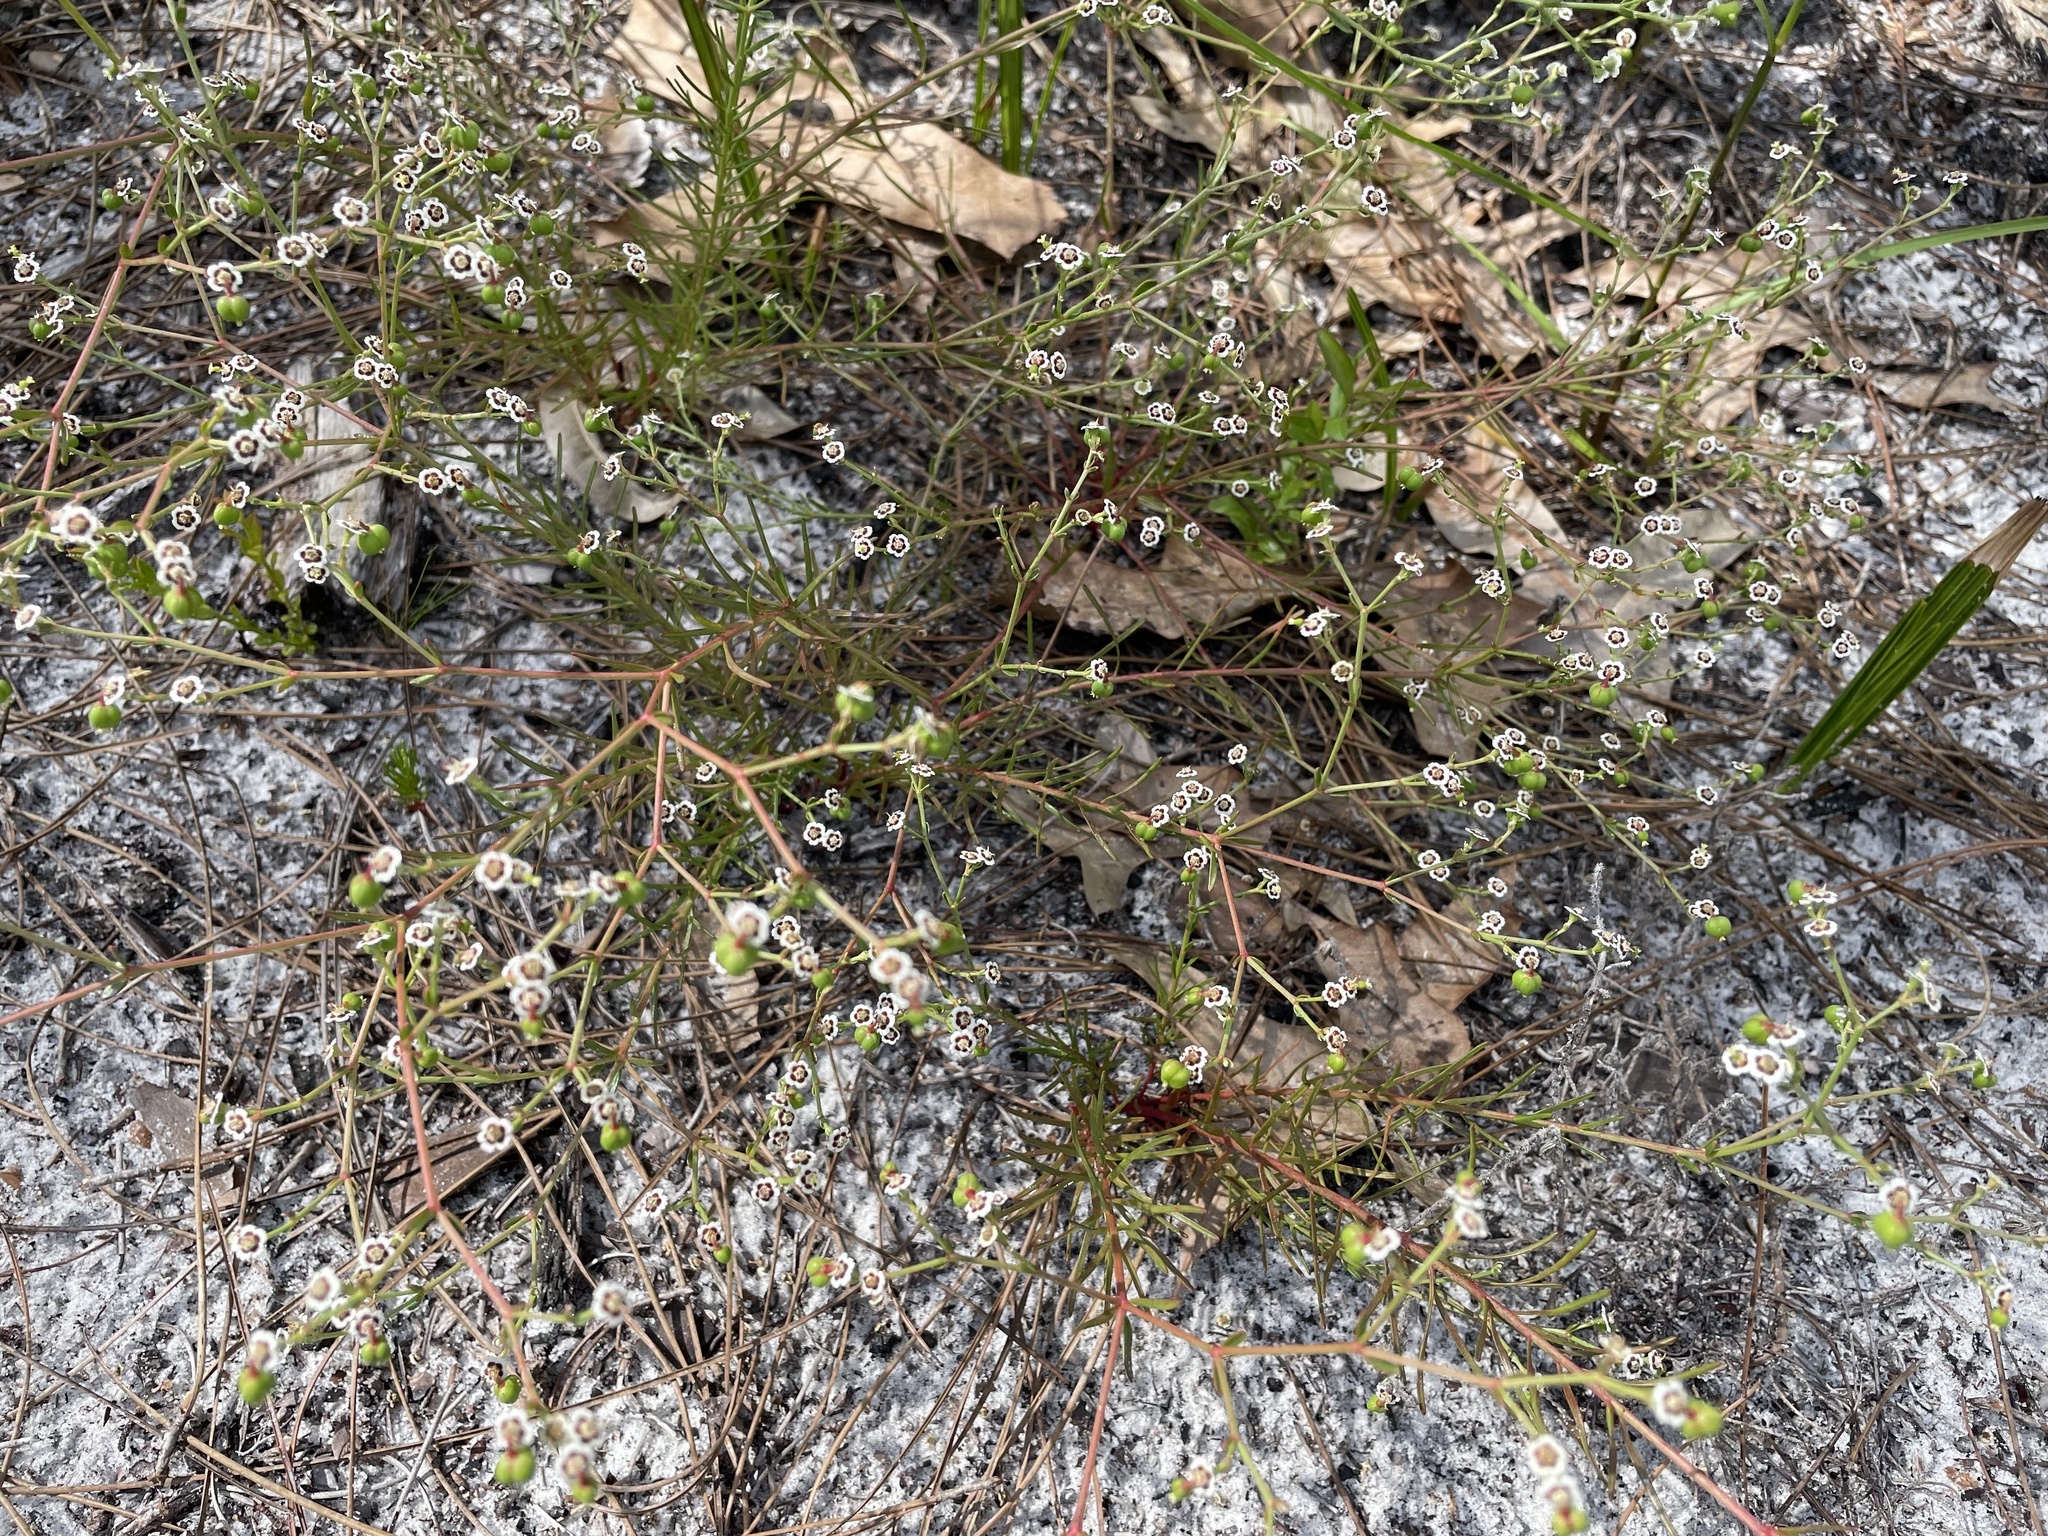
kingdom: Plantae
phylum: Tracheophyta
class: Magnoliopsida
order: Malpighiales
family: Euphorbiaceae
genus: Euphorbia
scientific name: Euphorbia polyphylla
